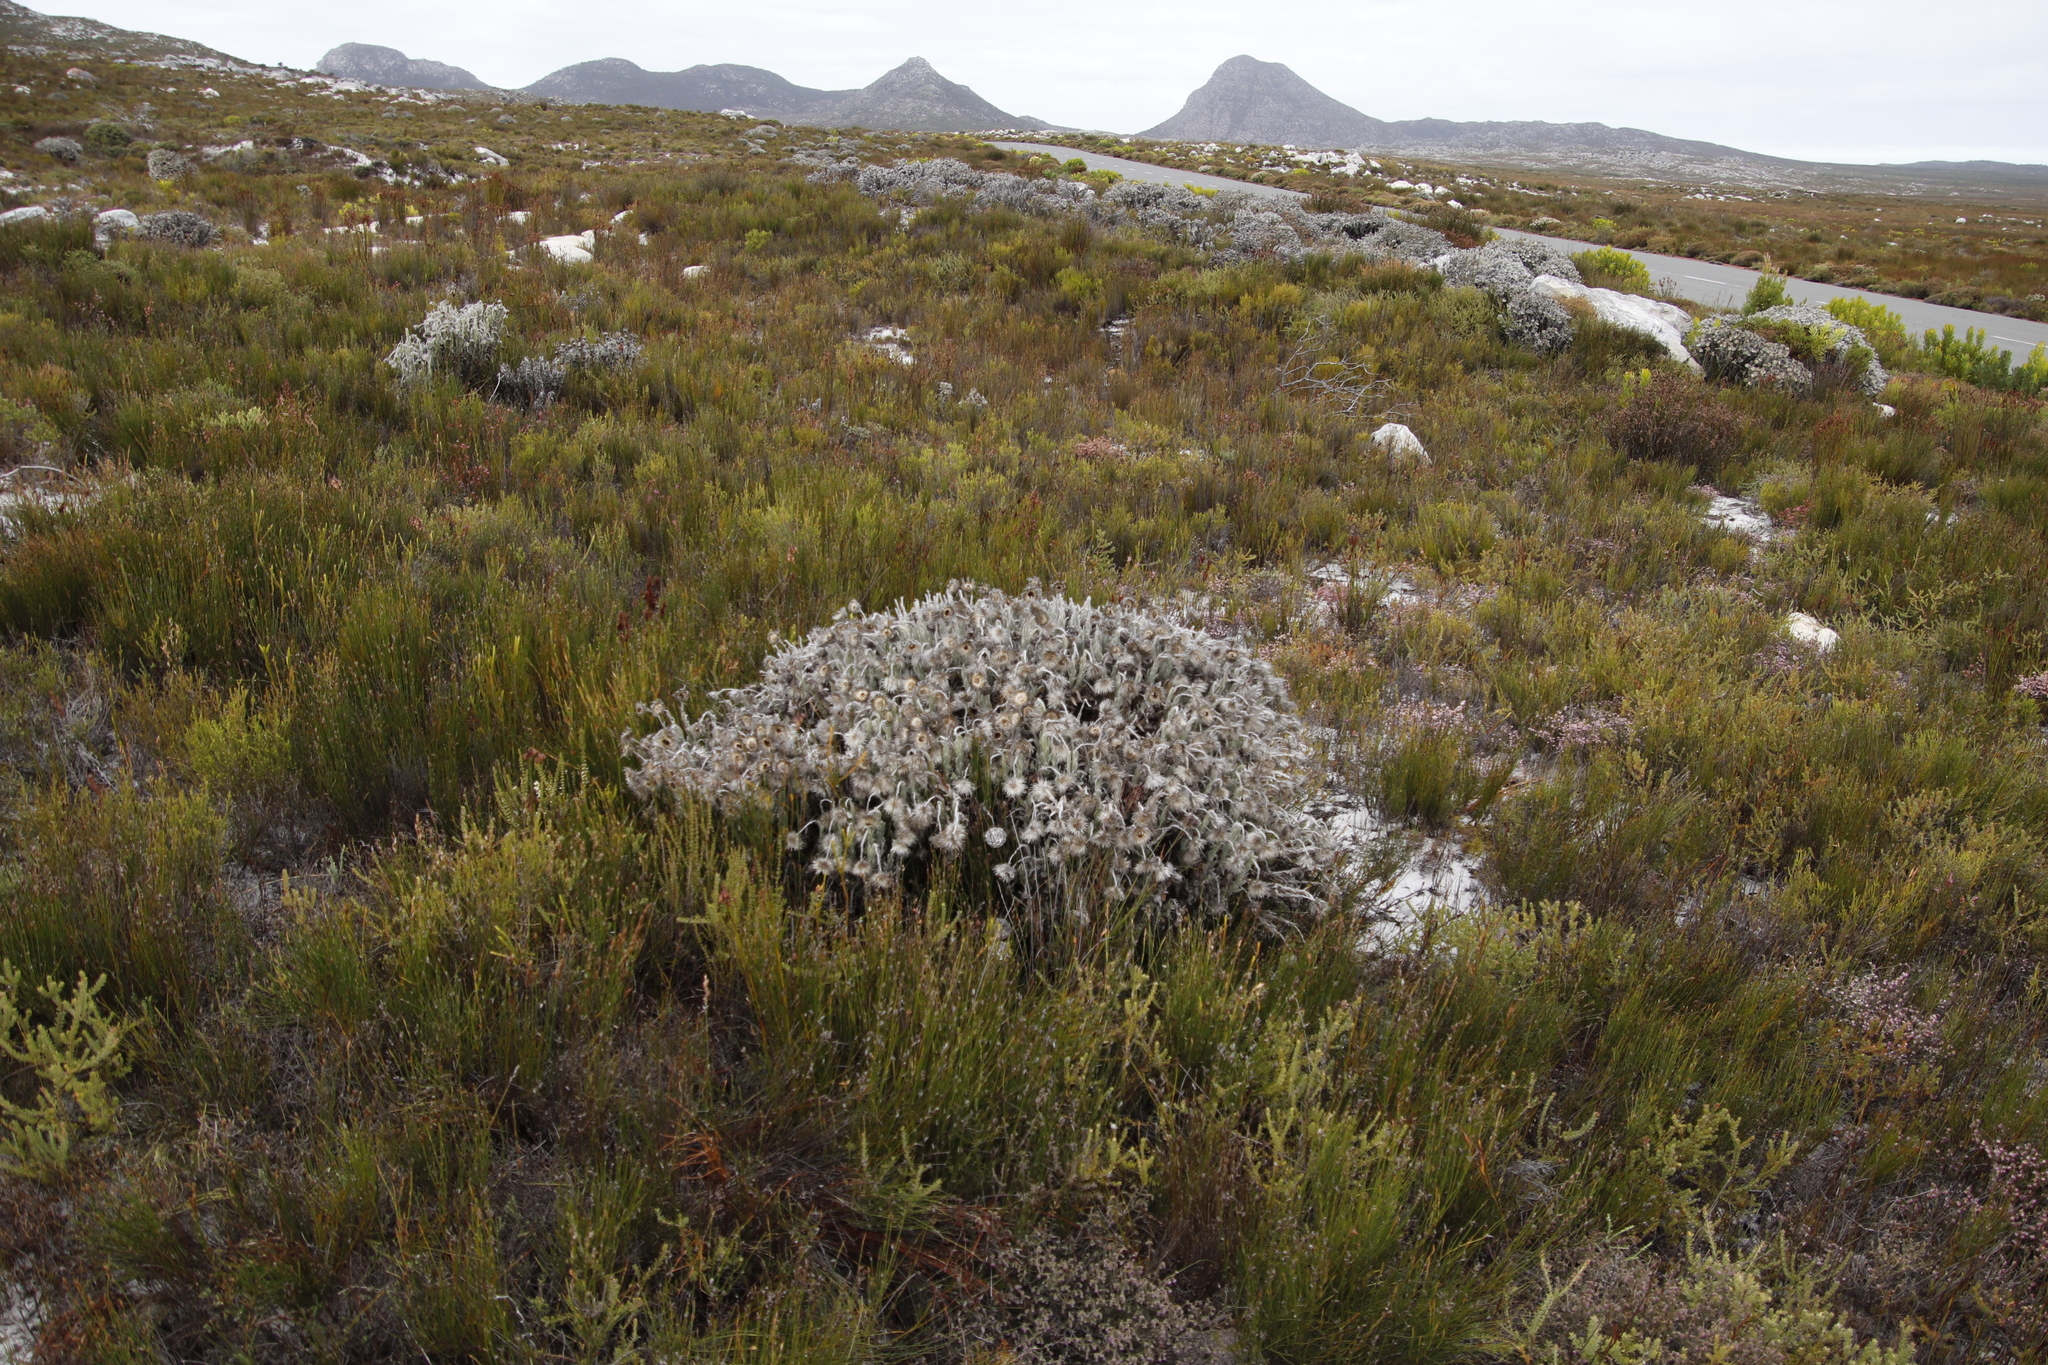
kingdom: Plantae
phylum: Tracheophyta
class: Magnoliopsida
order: Asterales
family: Asteraceae
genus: Syncarpha
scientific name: Syncarpha vestita
